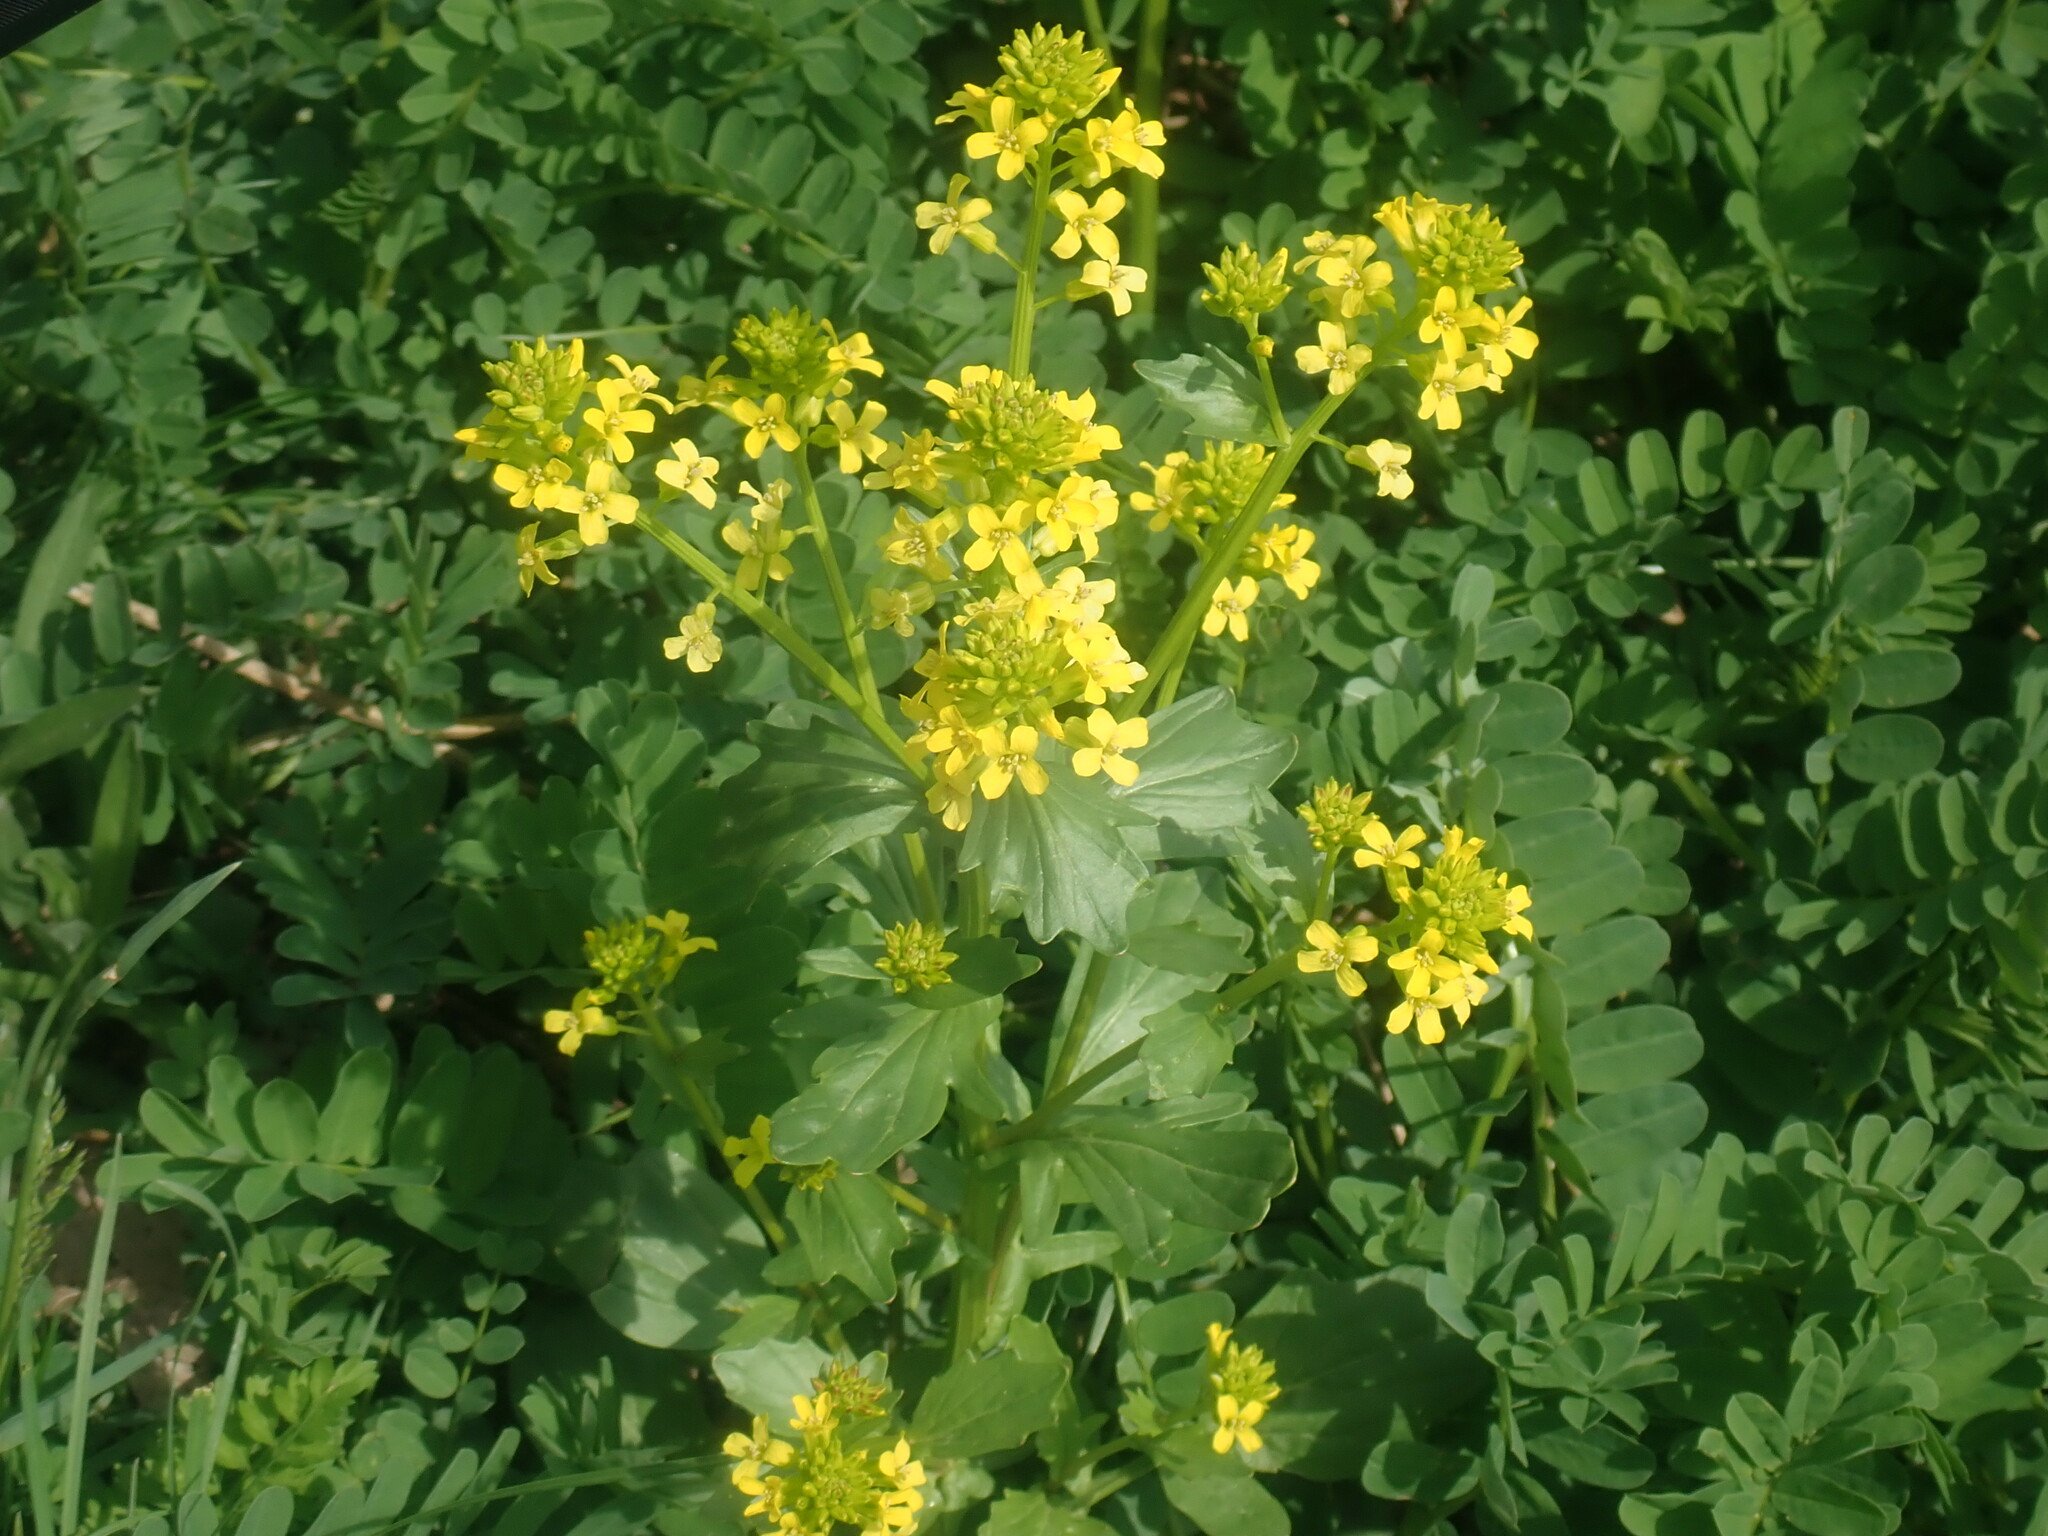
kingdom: Plantae
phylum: Tracheophyta
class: Magnoliopsida
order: Brassicales
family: Brassicaceae
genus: Barbarea
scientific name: Barbarea vulgaris
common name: Cressy-greens
